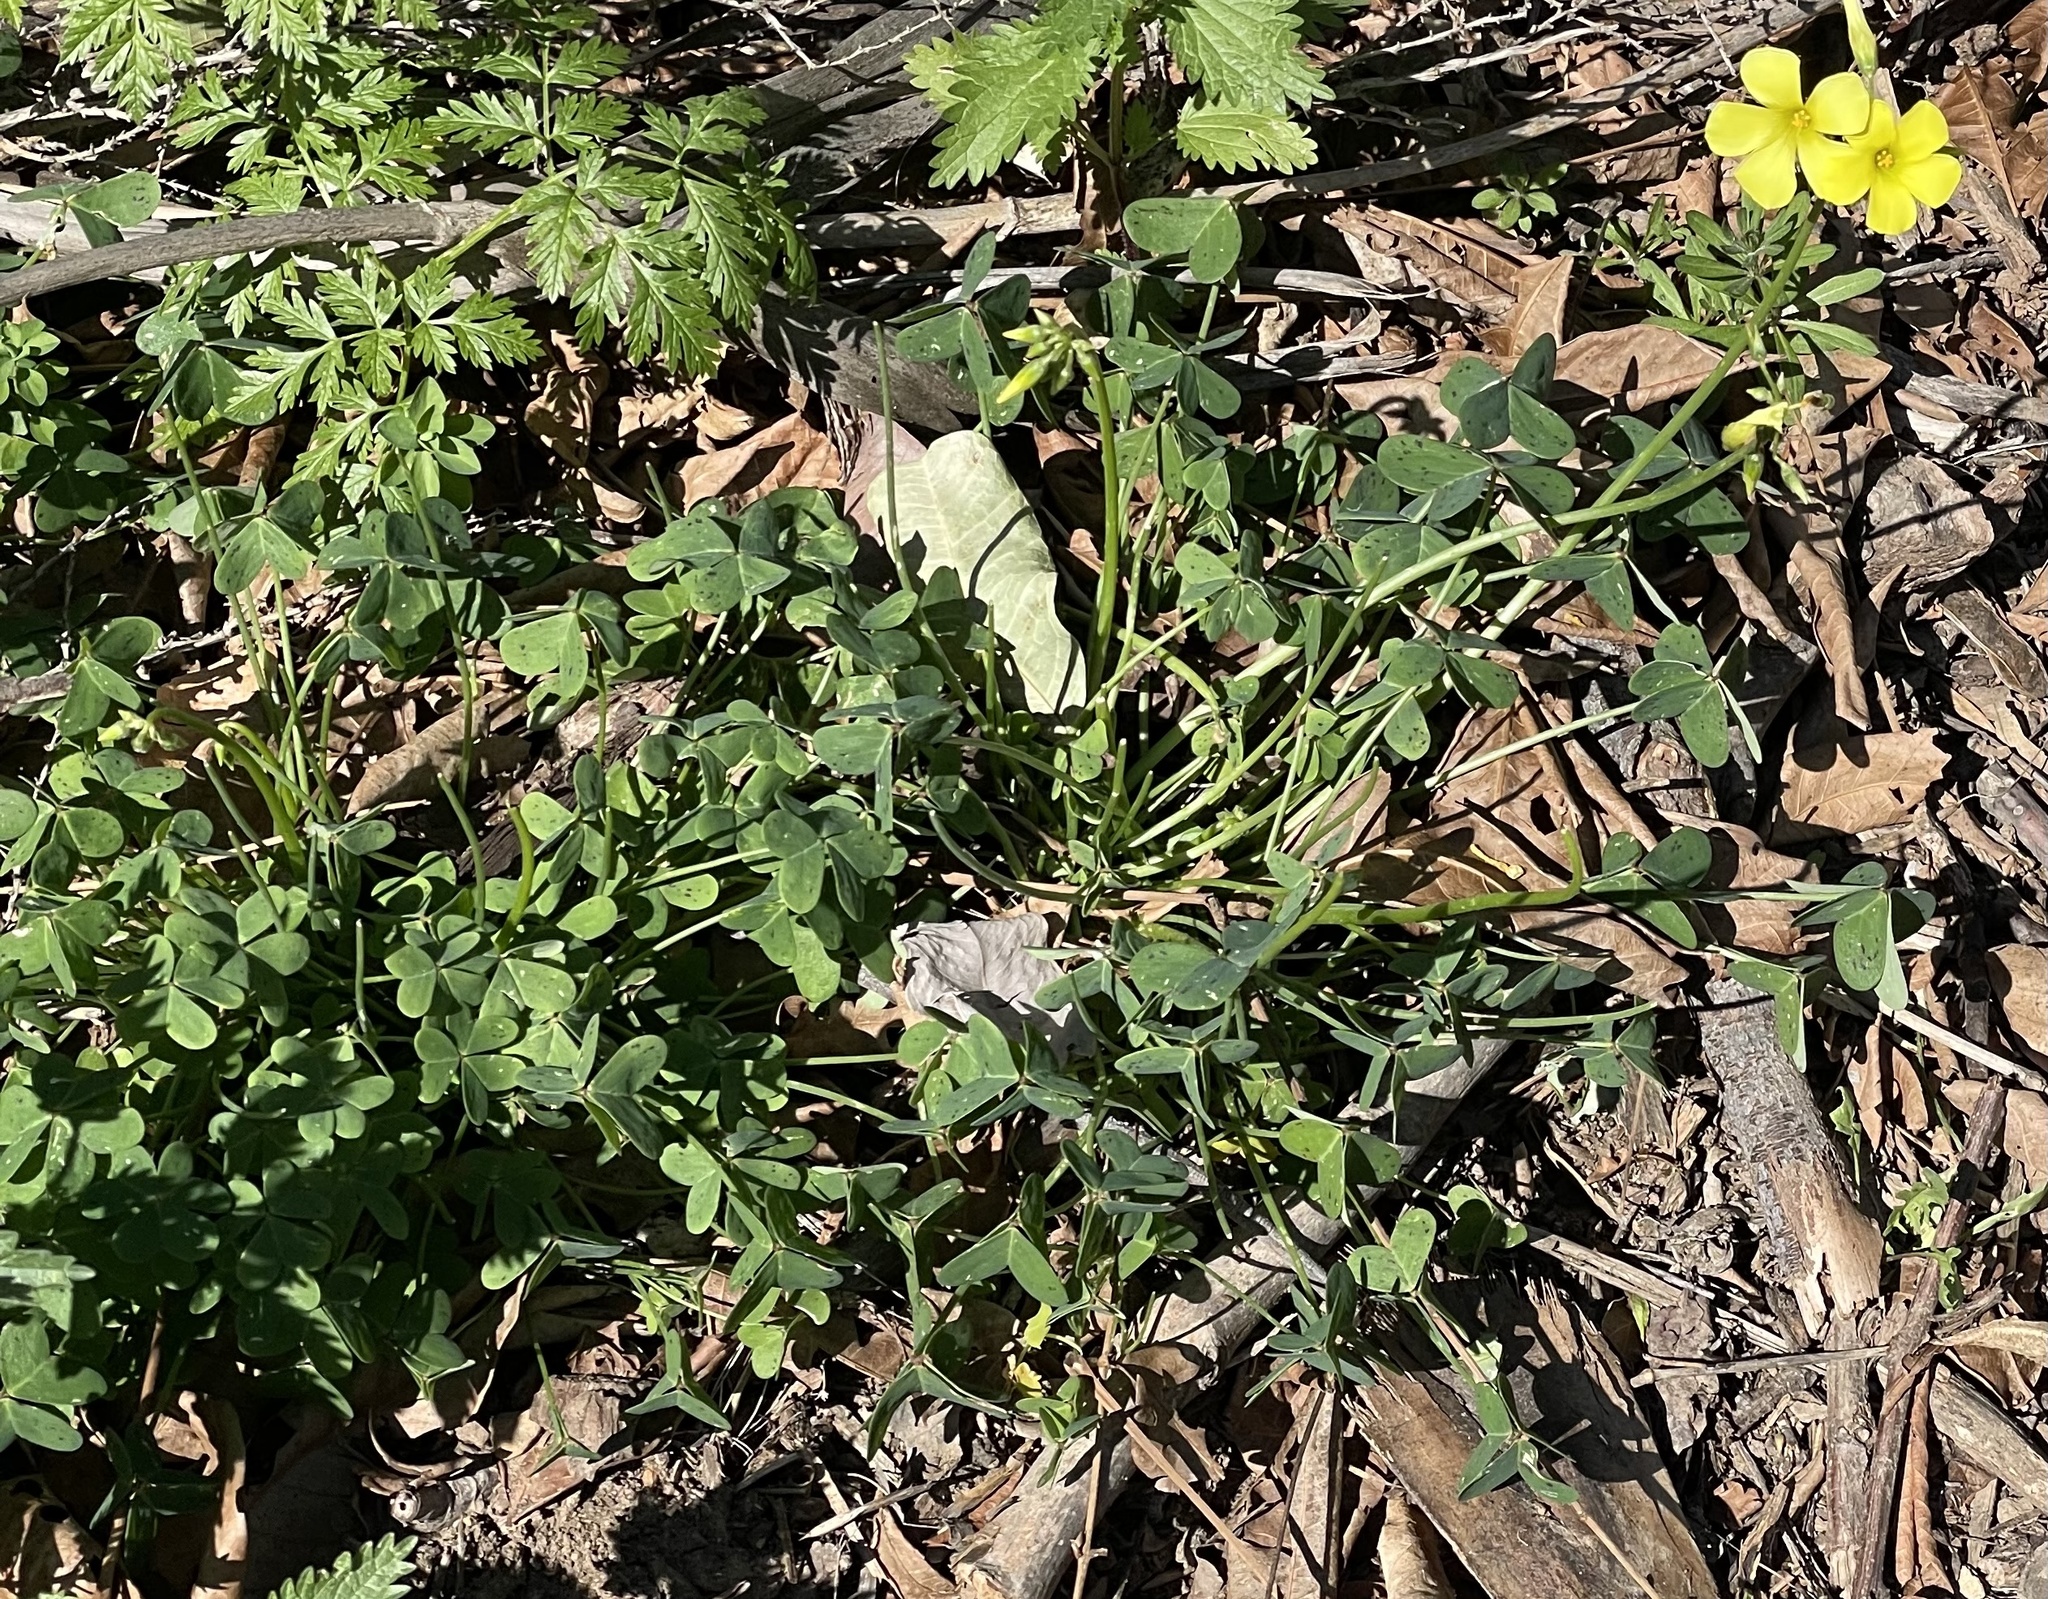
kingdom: Plantae
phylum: Tracheophyta
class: Magnoliopsida
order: Oxalidales
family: Oxalidaceae
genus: Oxalis
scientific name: Oxalis pes-caprae
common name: Bermuda-buttercup
